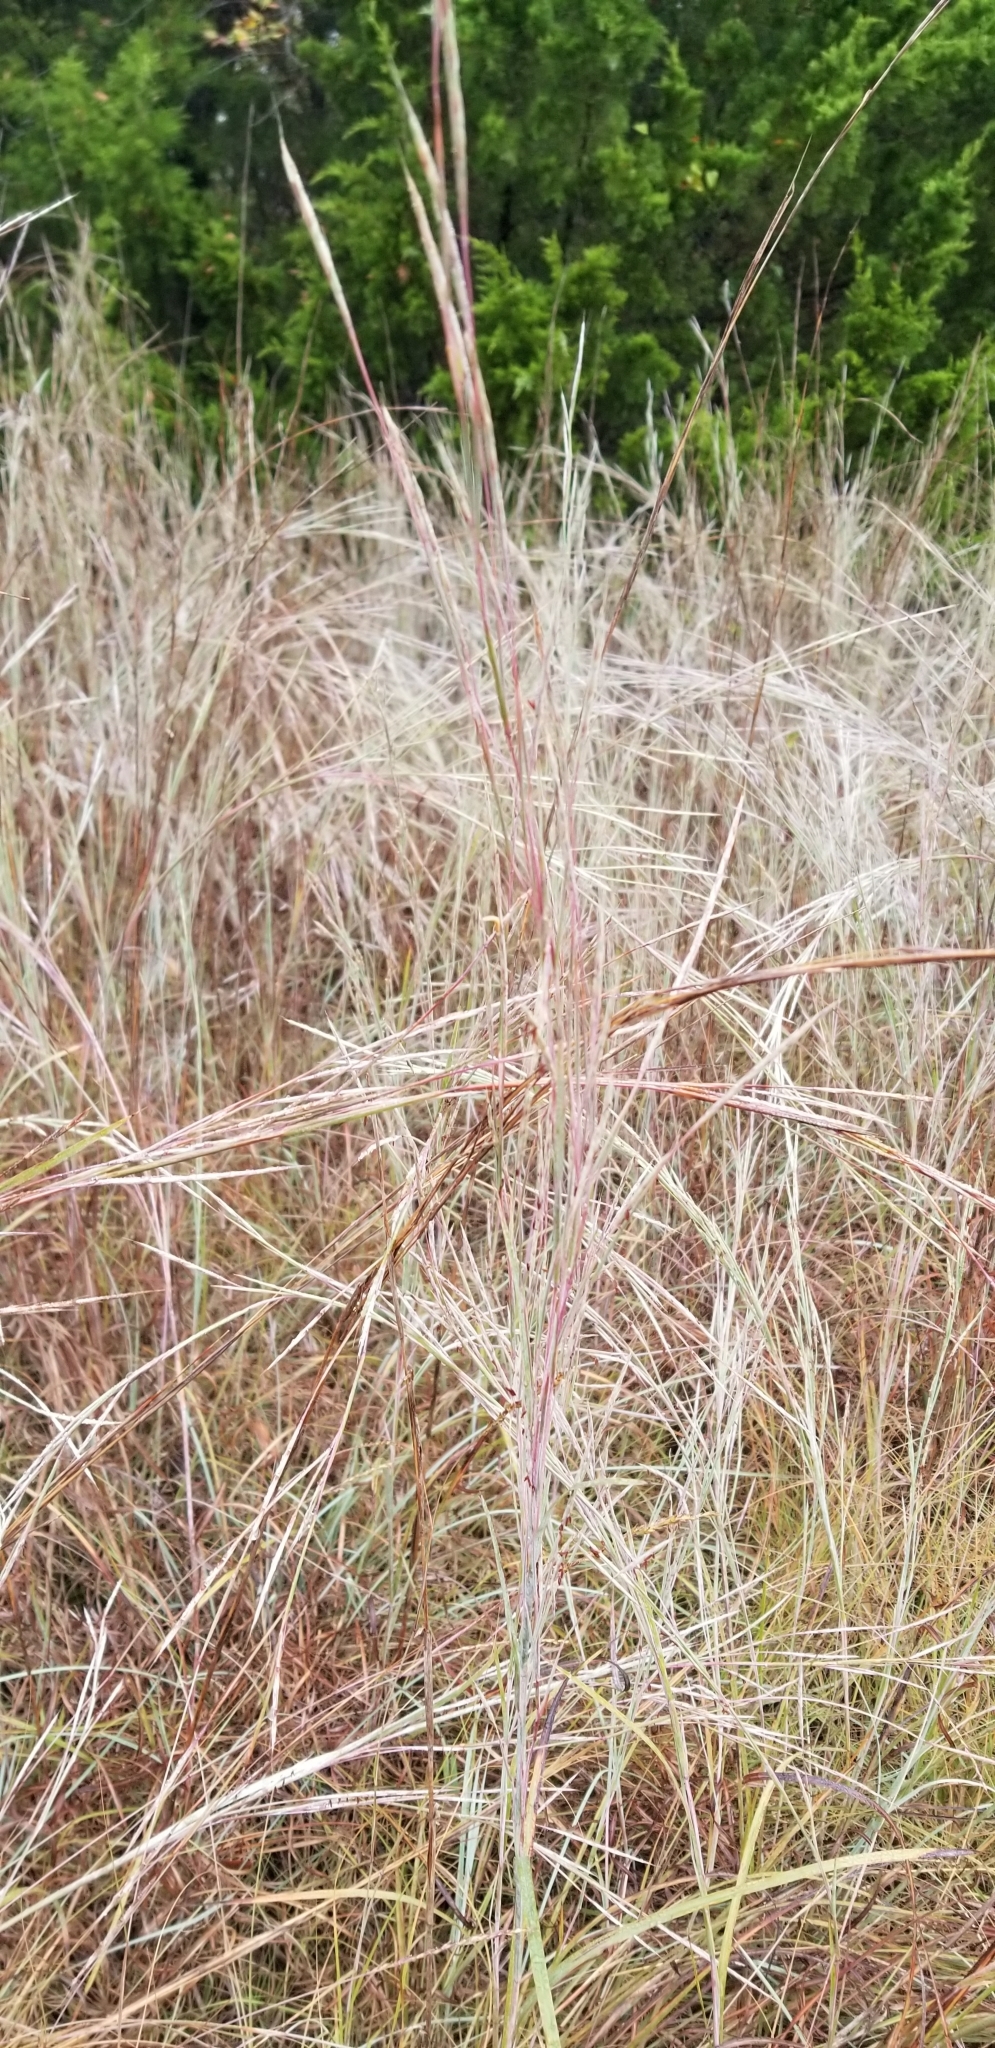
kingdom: Plantae
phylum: Tracheophyta
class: Liliopsida
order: Poales
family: Poaceae
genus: Schizachyrium
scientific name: Schizachyrium scoparium
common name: Little bluestem
